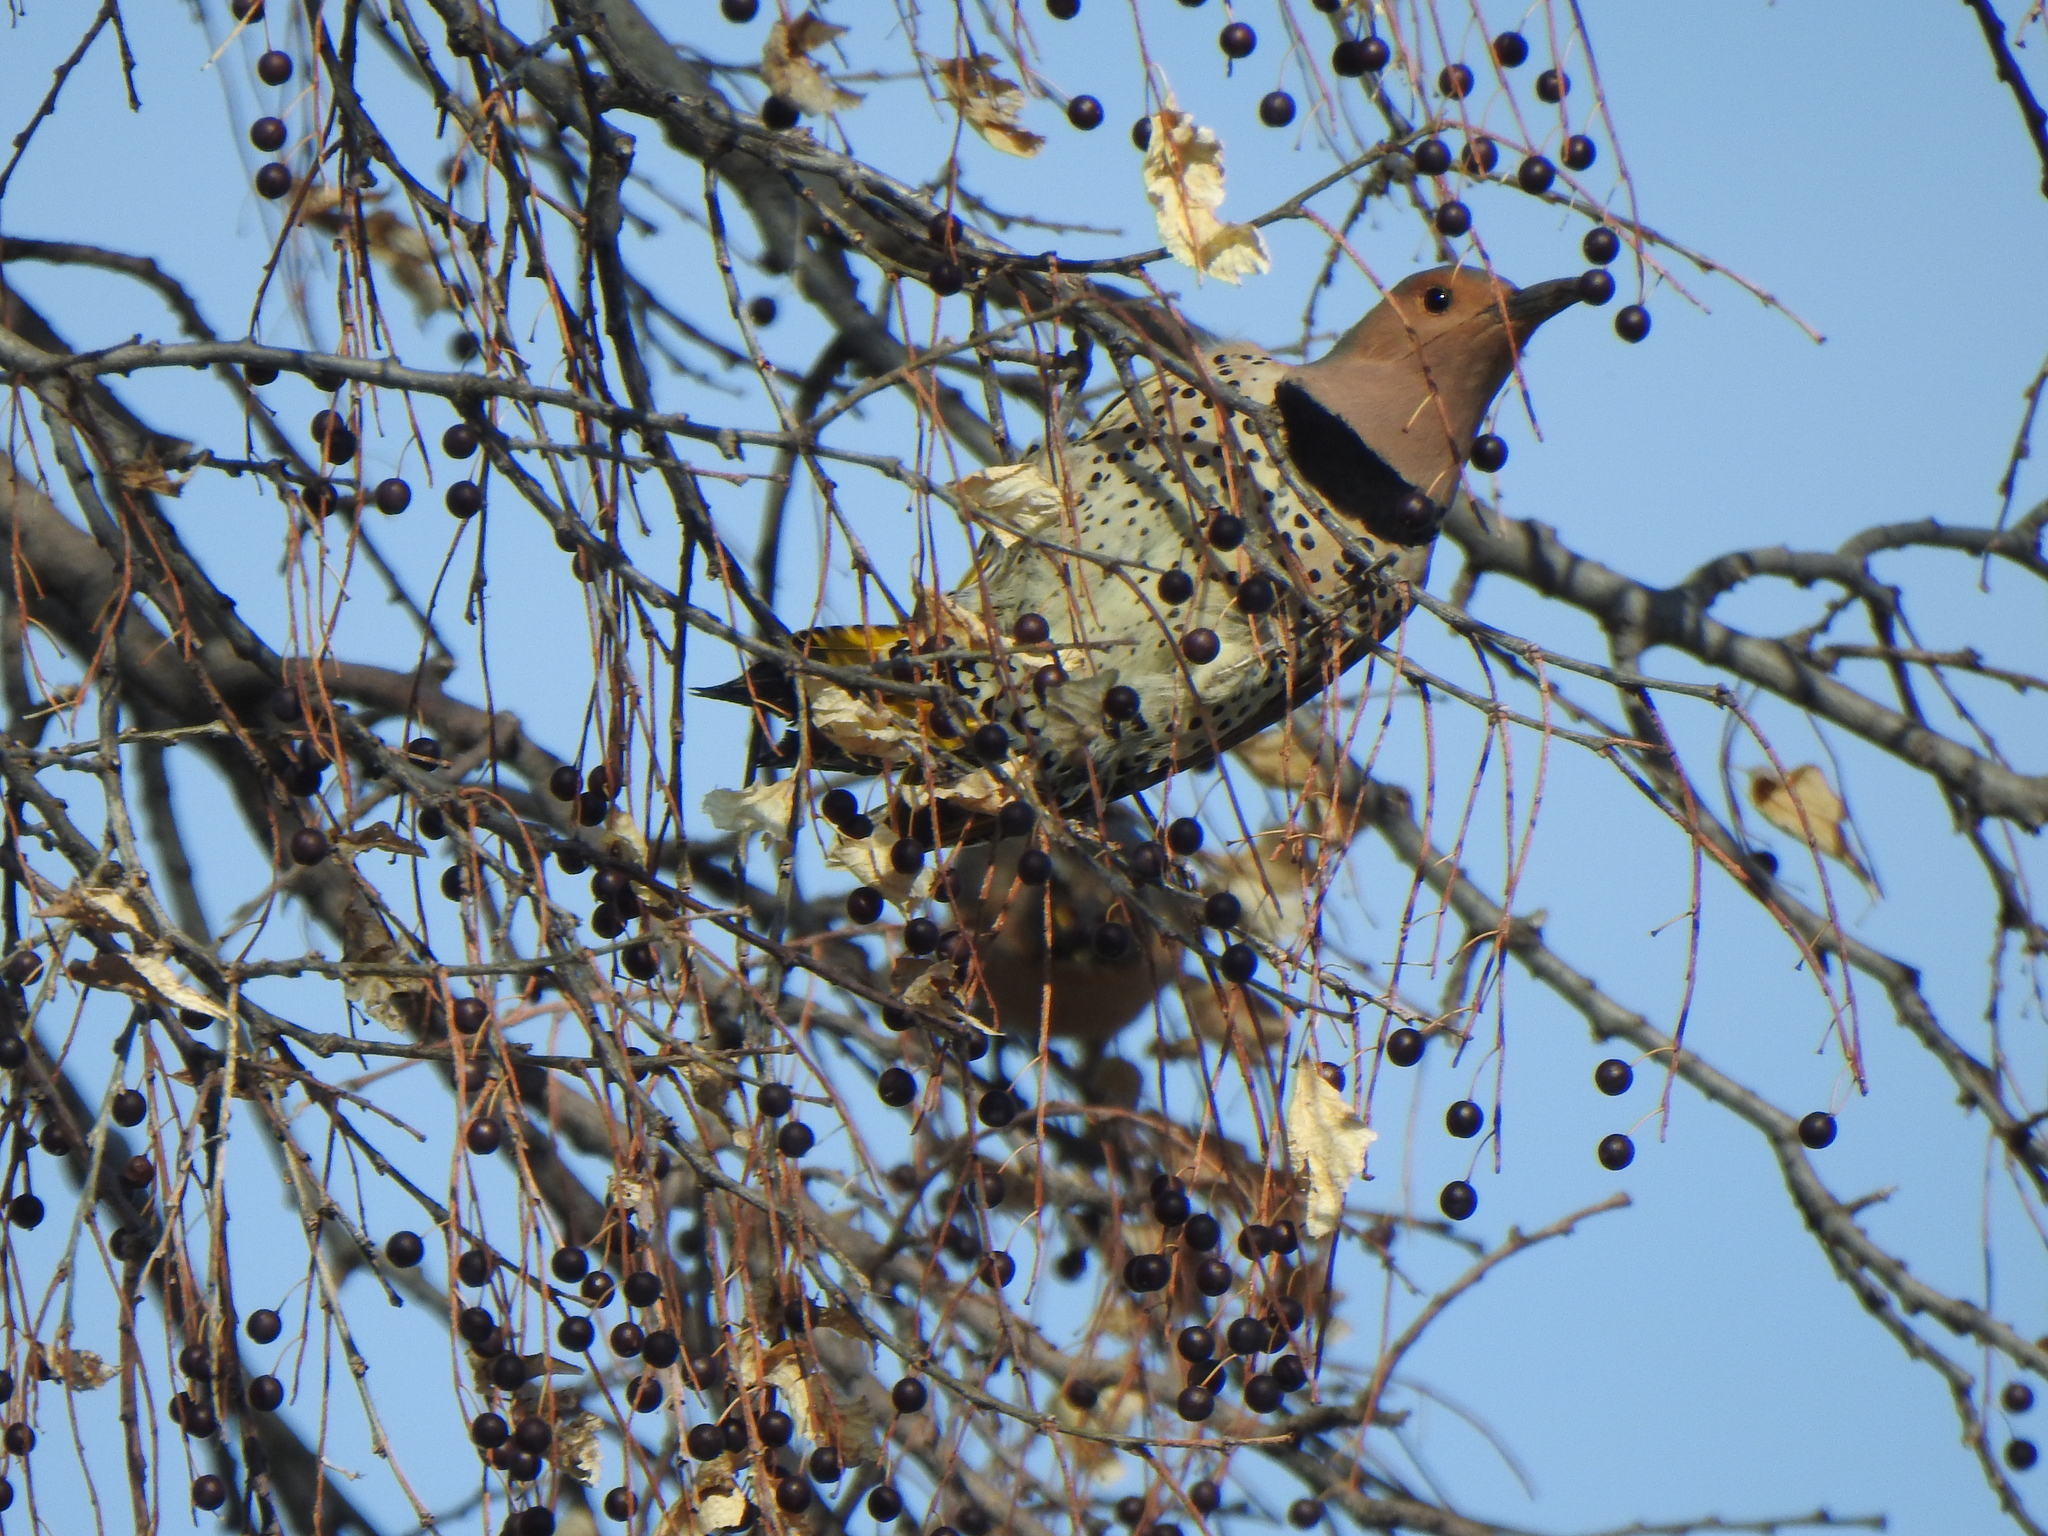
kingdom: Animalia
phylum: Chordata
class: Aves
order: Piciformes
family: Picidae
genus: Colaptes
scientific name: Colaptes auratus
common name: Northern flicker
